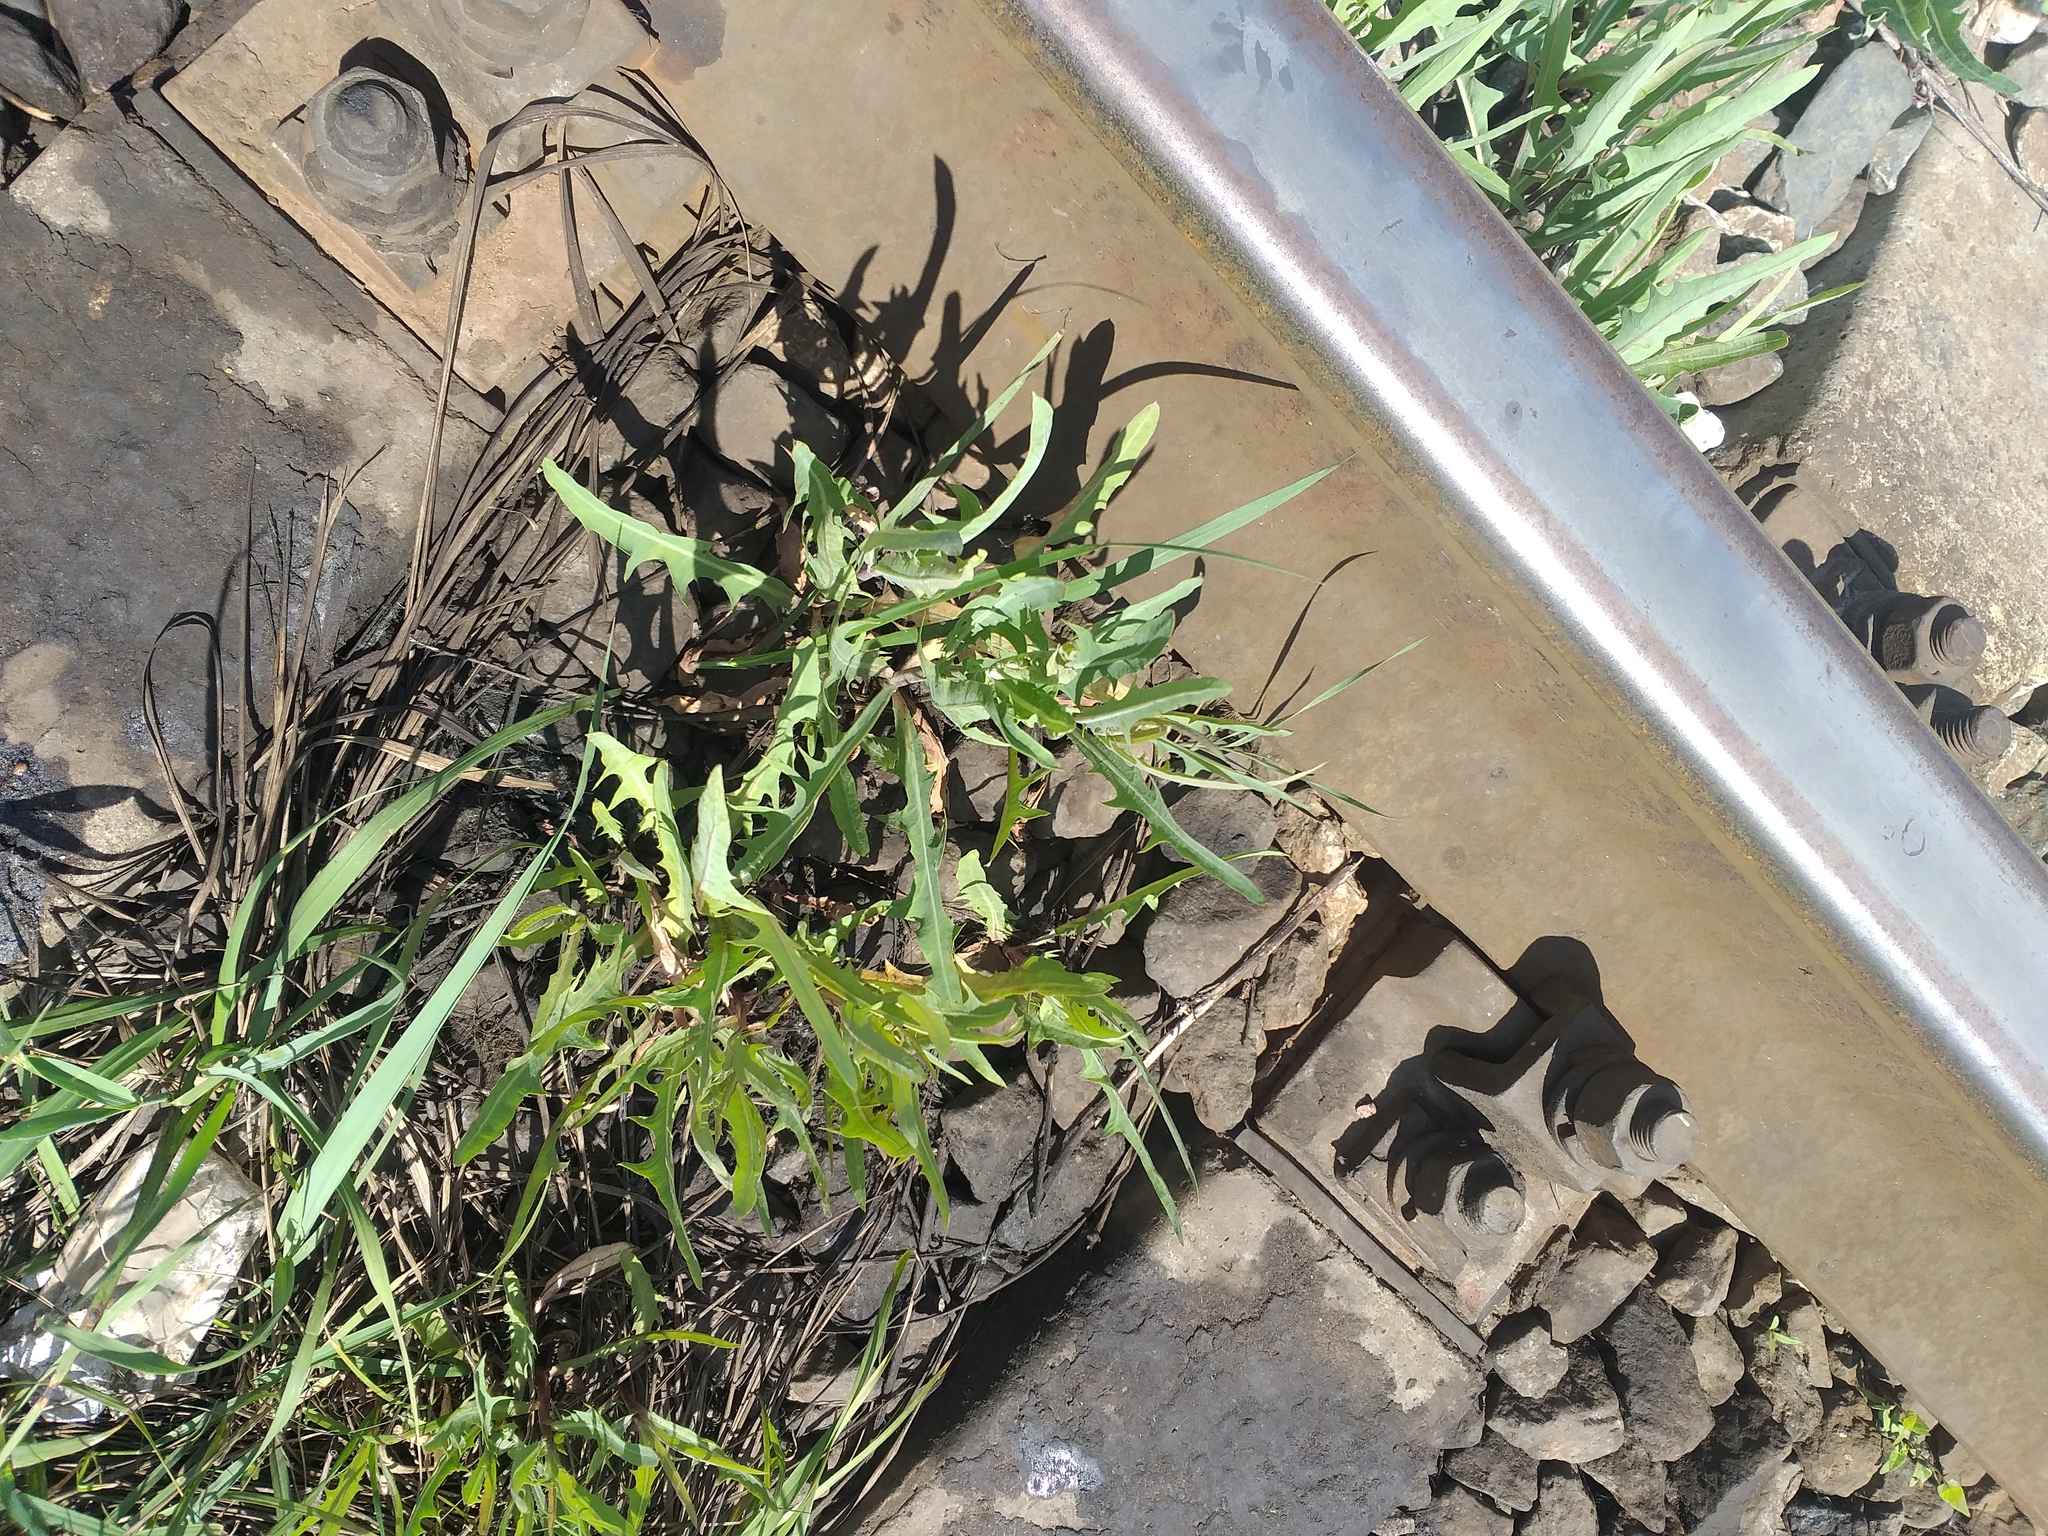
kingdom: Plantae
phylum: Tracheophyta
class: Magnoliopsida
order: Asterales
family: Asteraceae
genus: Lactuca
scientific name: Lactuca tatarica
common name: Blue lettuce
